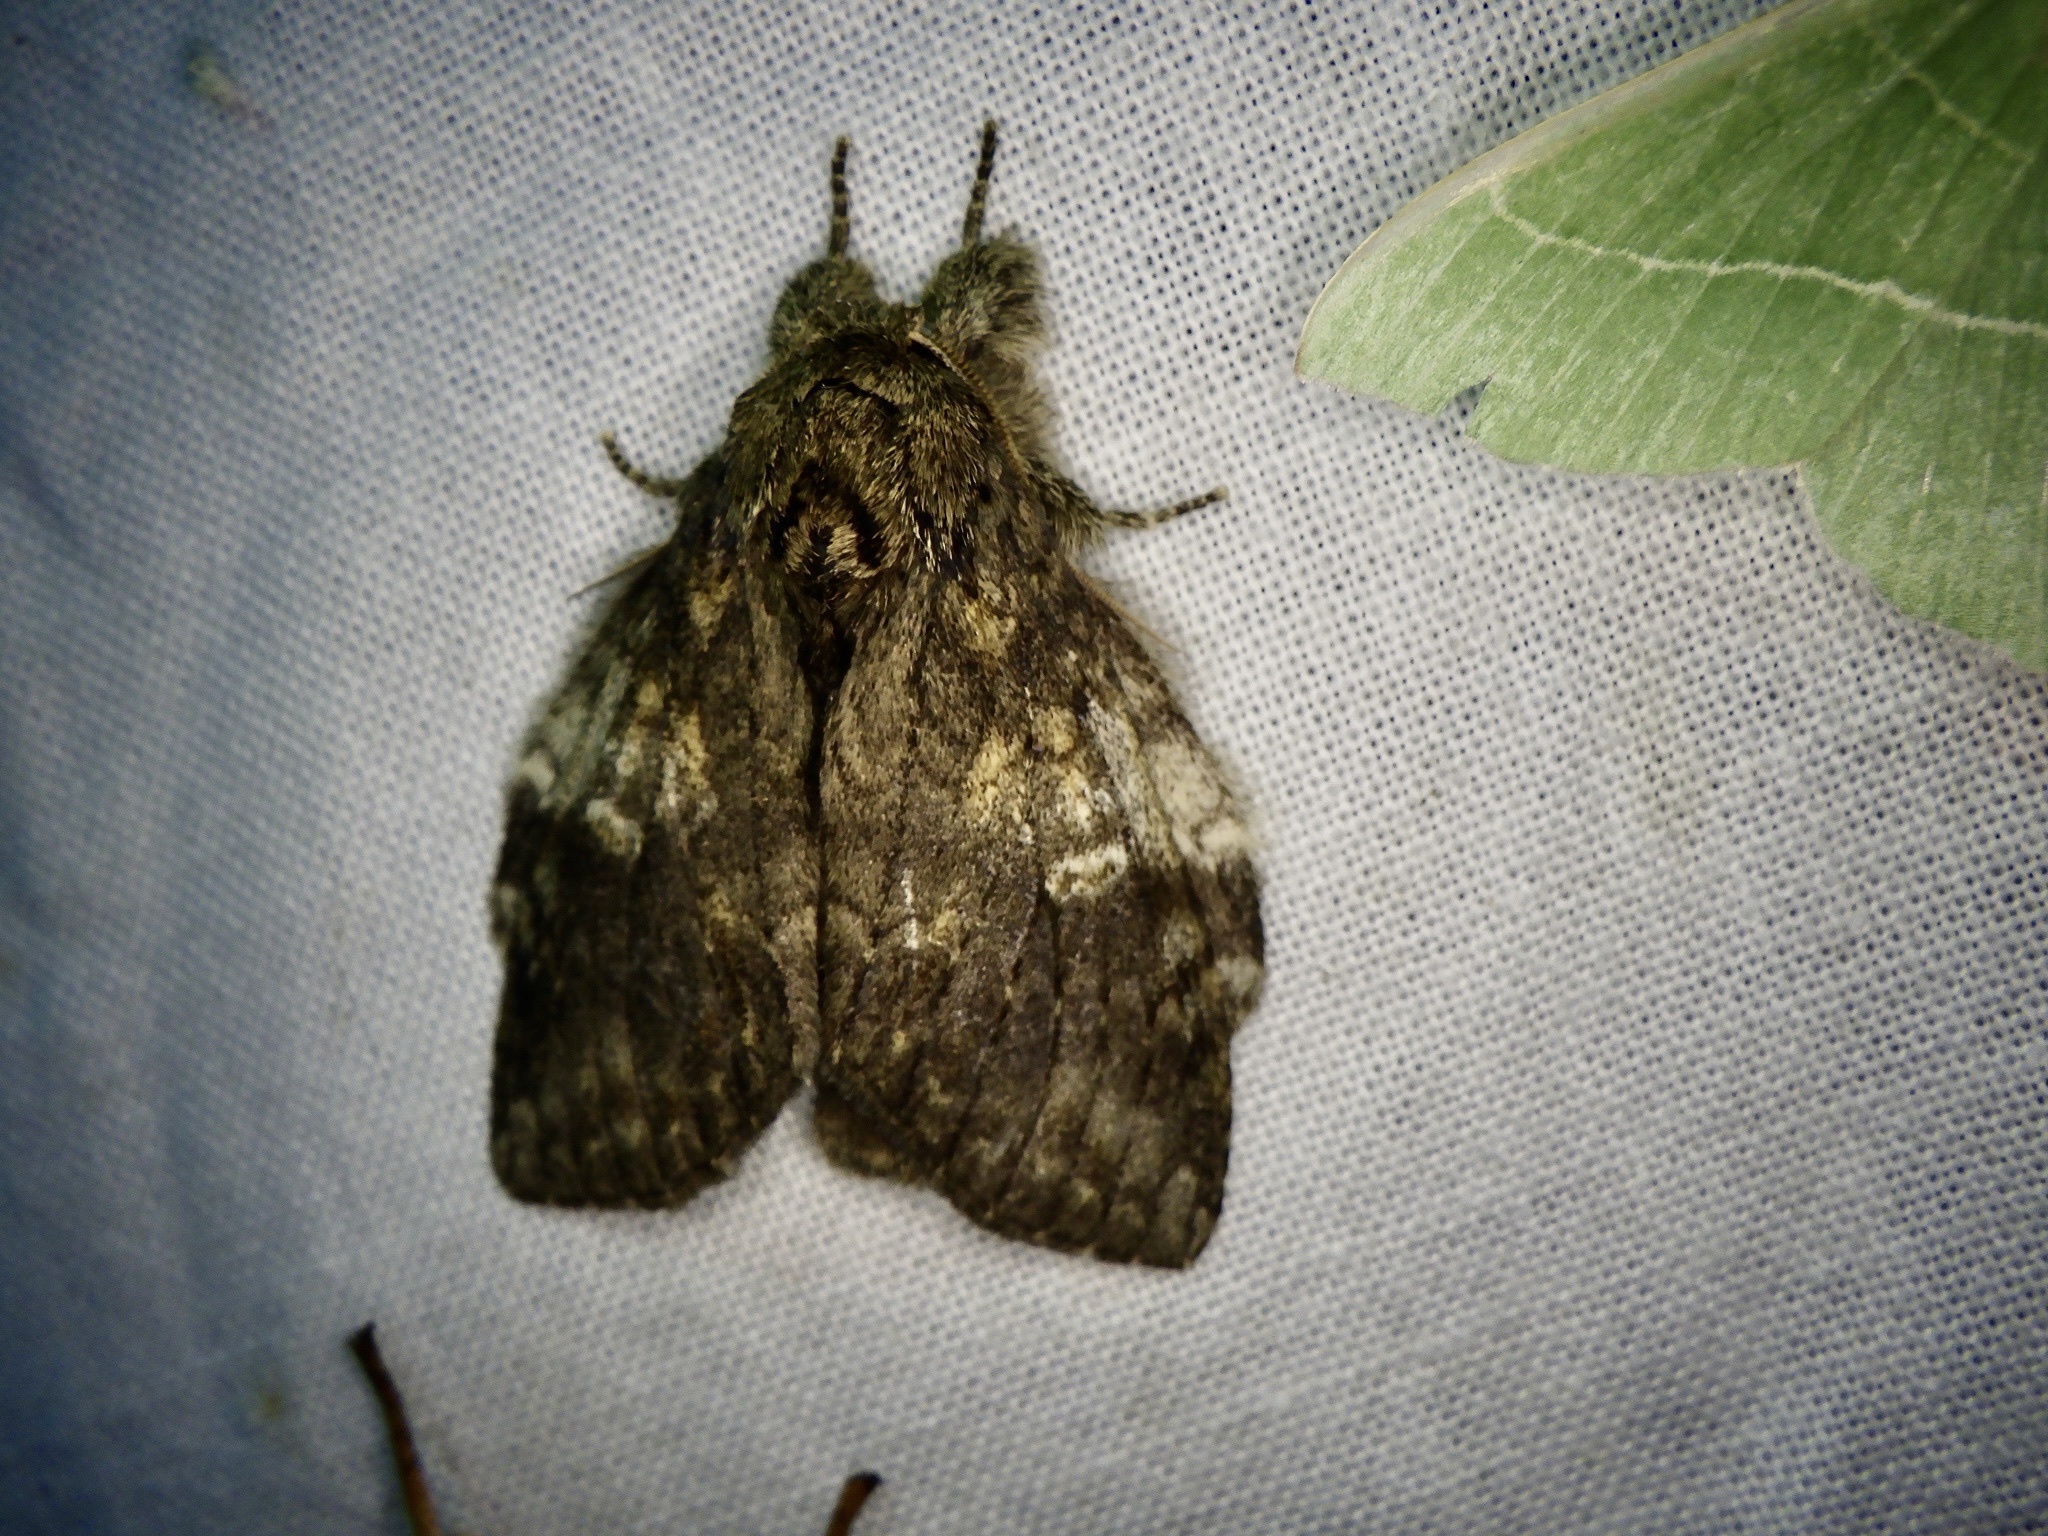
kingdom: Animalia
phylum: Arthropoda
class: Insecta
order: Lepidoptera
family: Notodontidae
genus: Peridea
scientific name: Peridea gigantea
